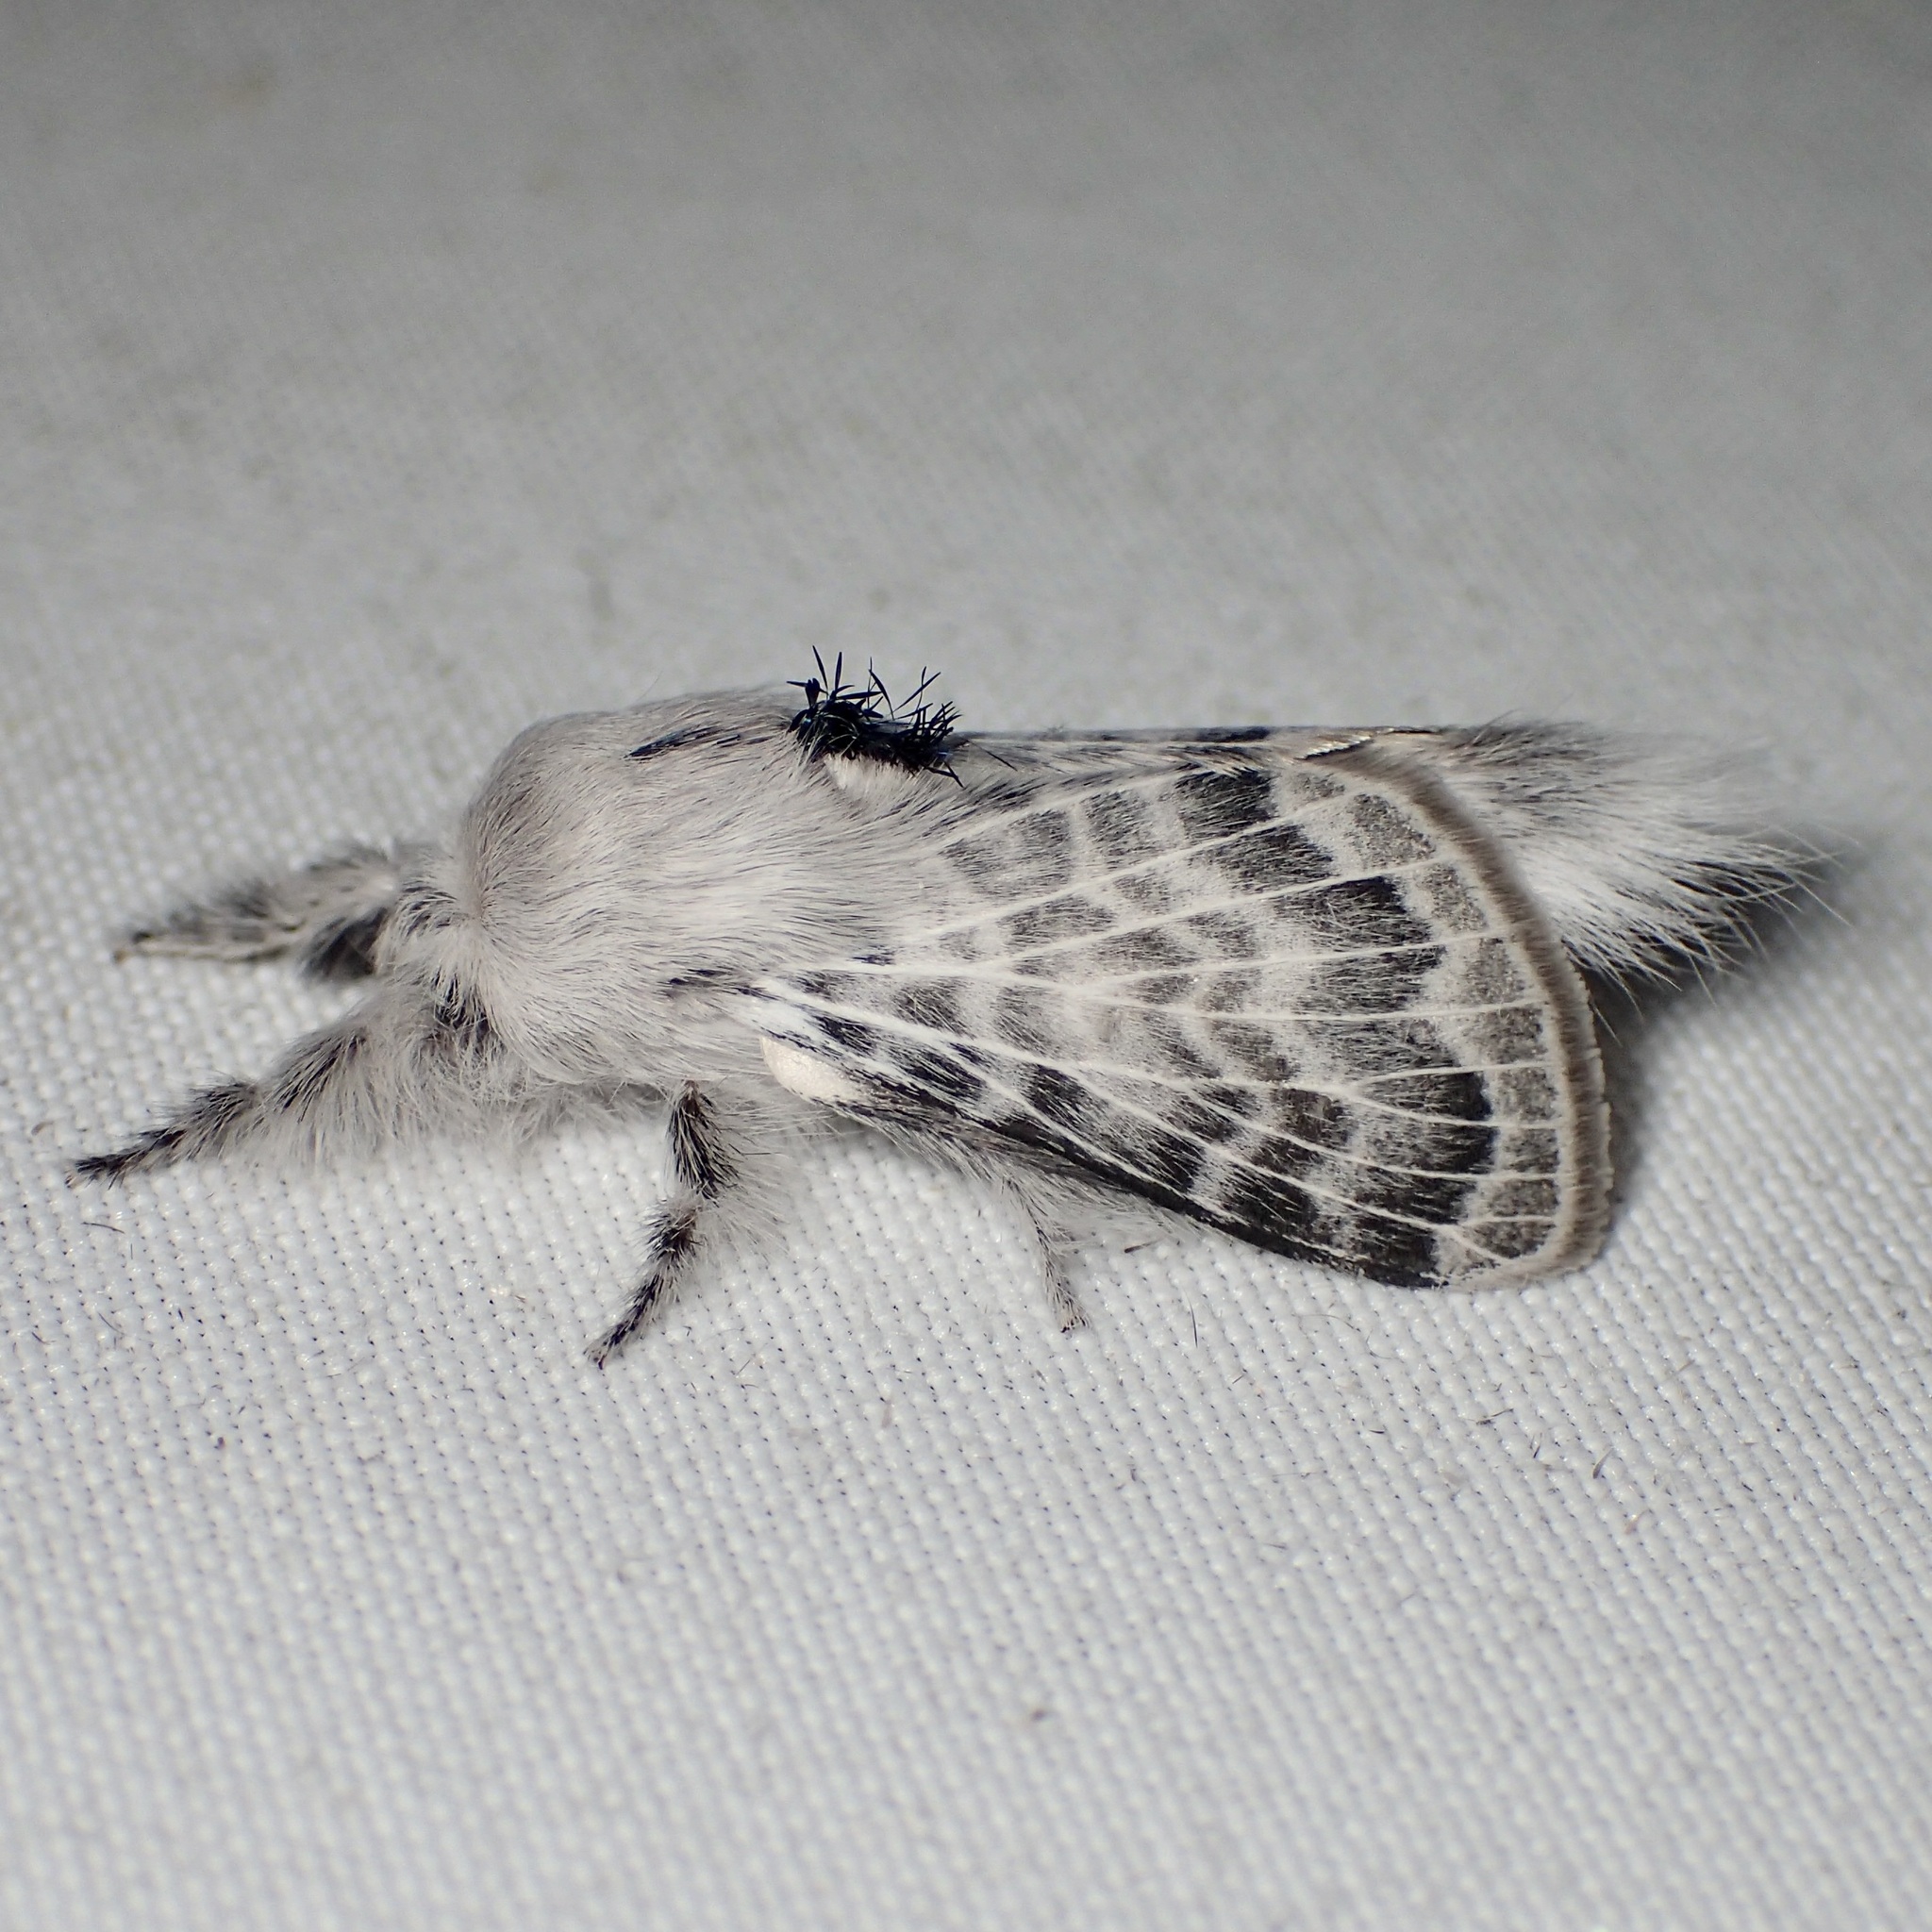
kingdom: Animalia
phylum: Arthropoda
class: Insecta
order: Lepidoptera
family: Lasiocampidae
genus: Apotolype
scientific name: Apotolype brevicrista
